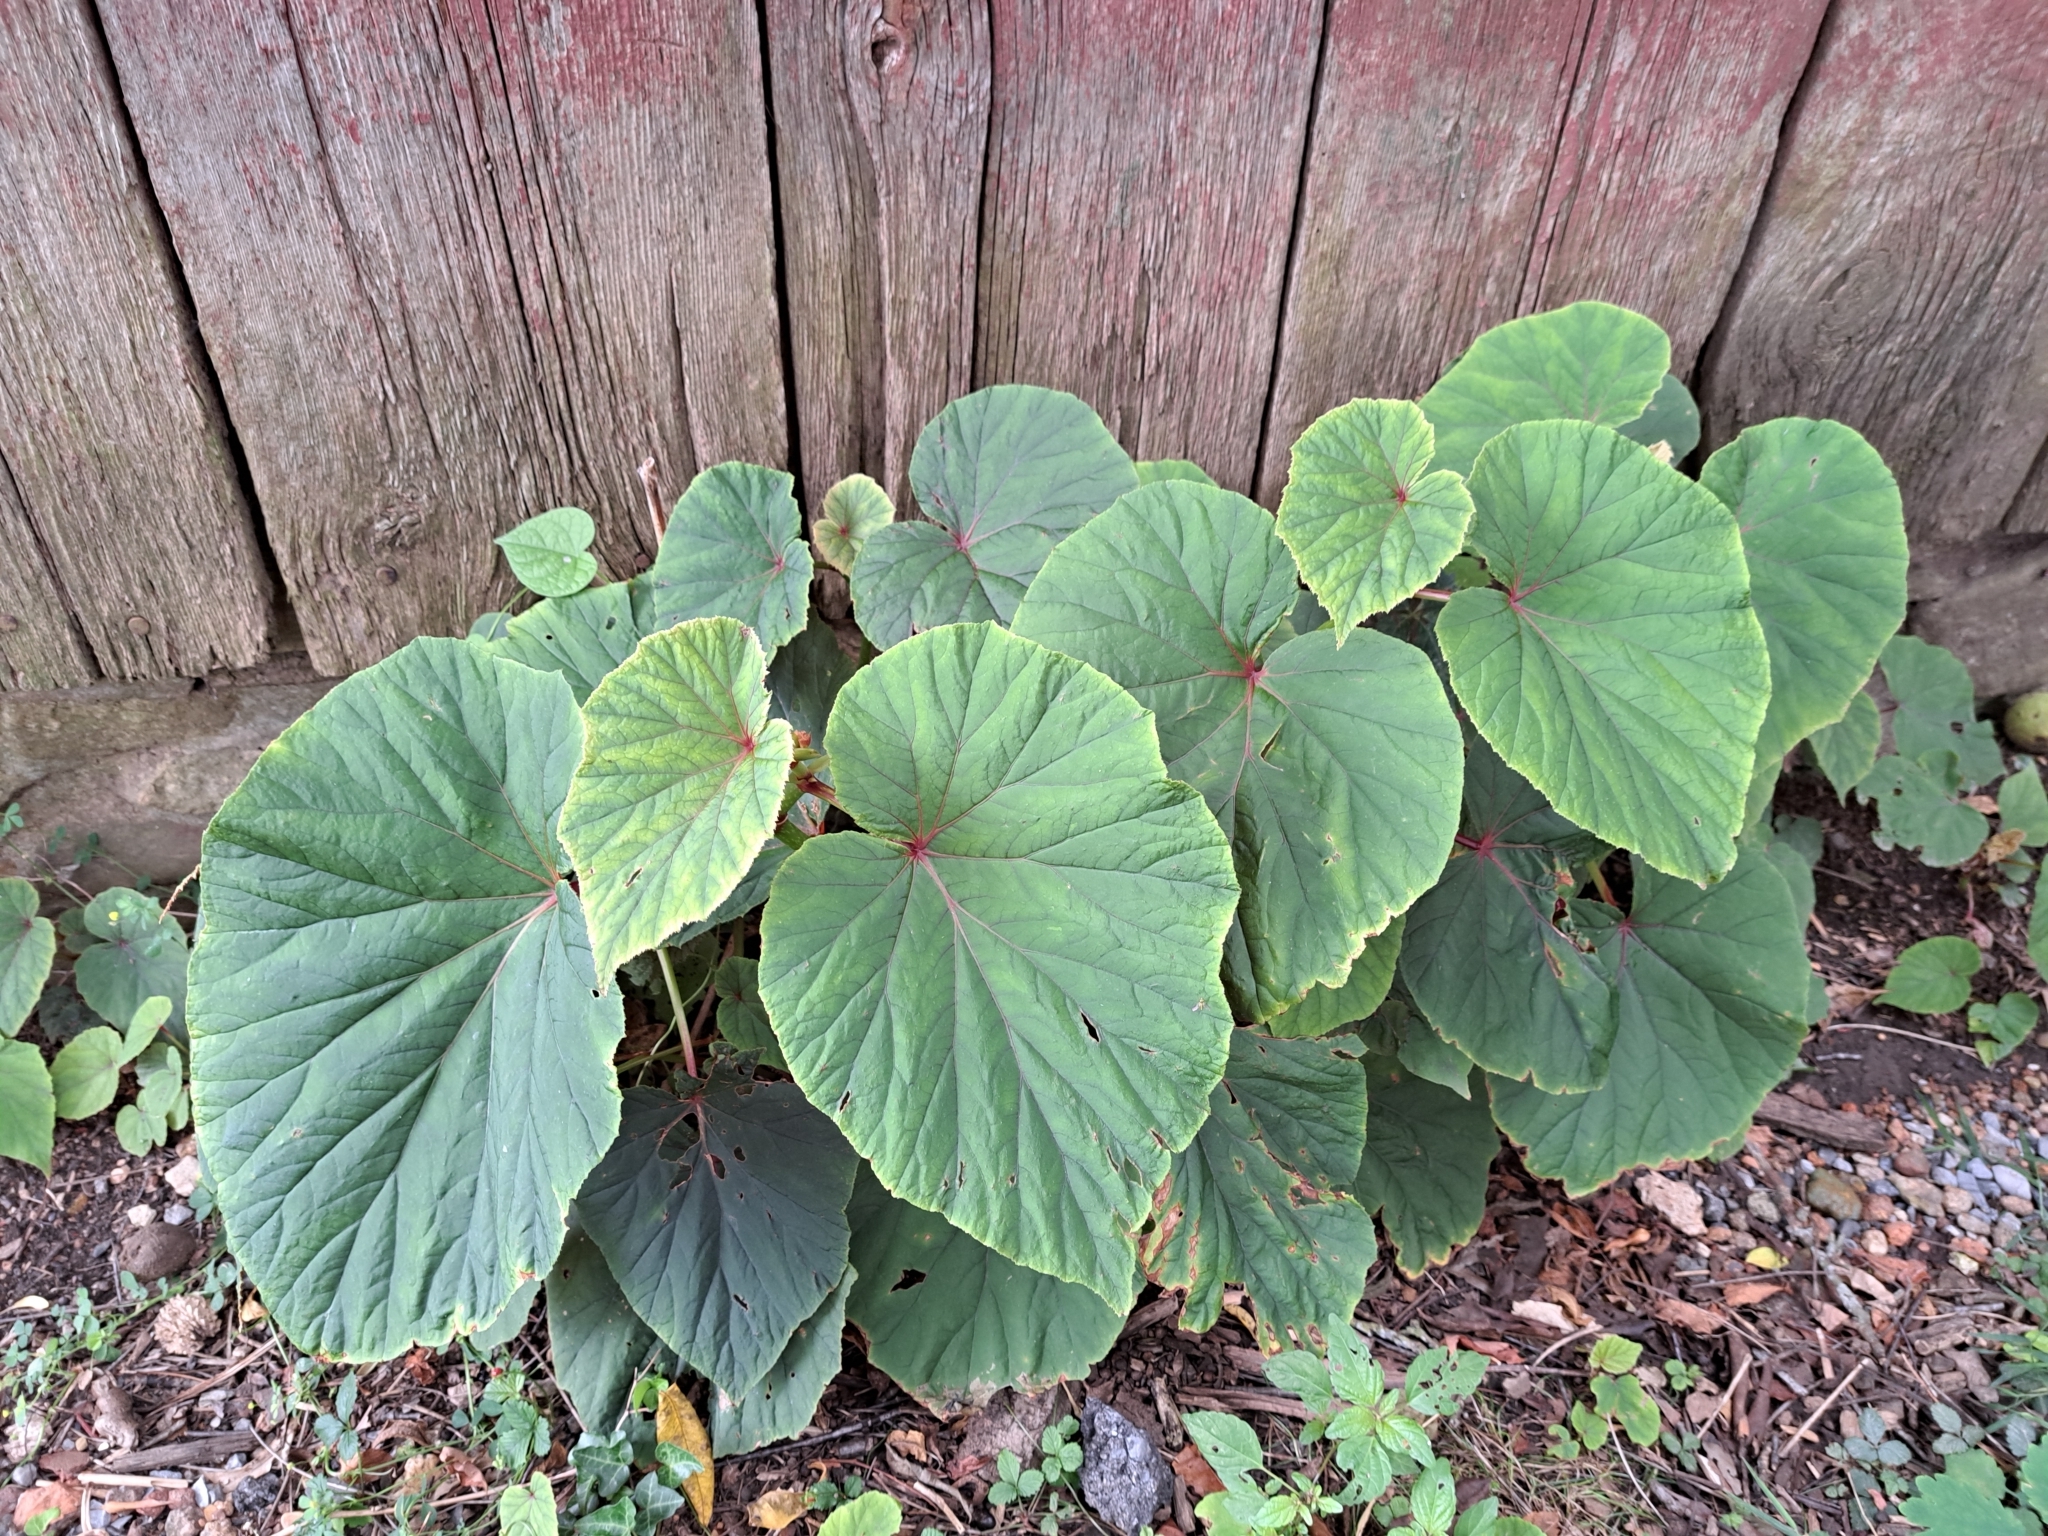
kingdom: Plantae
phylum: Tracheophyta
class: Magnoliopsida
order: Cucurbitales
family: Begoniaceae
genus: Begonia
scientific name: Begonia grandis
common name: Hardy begonia
